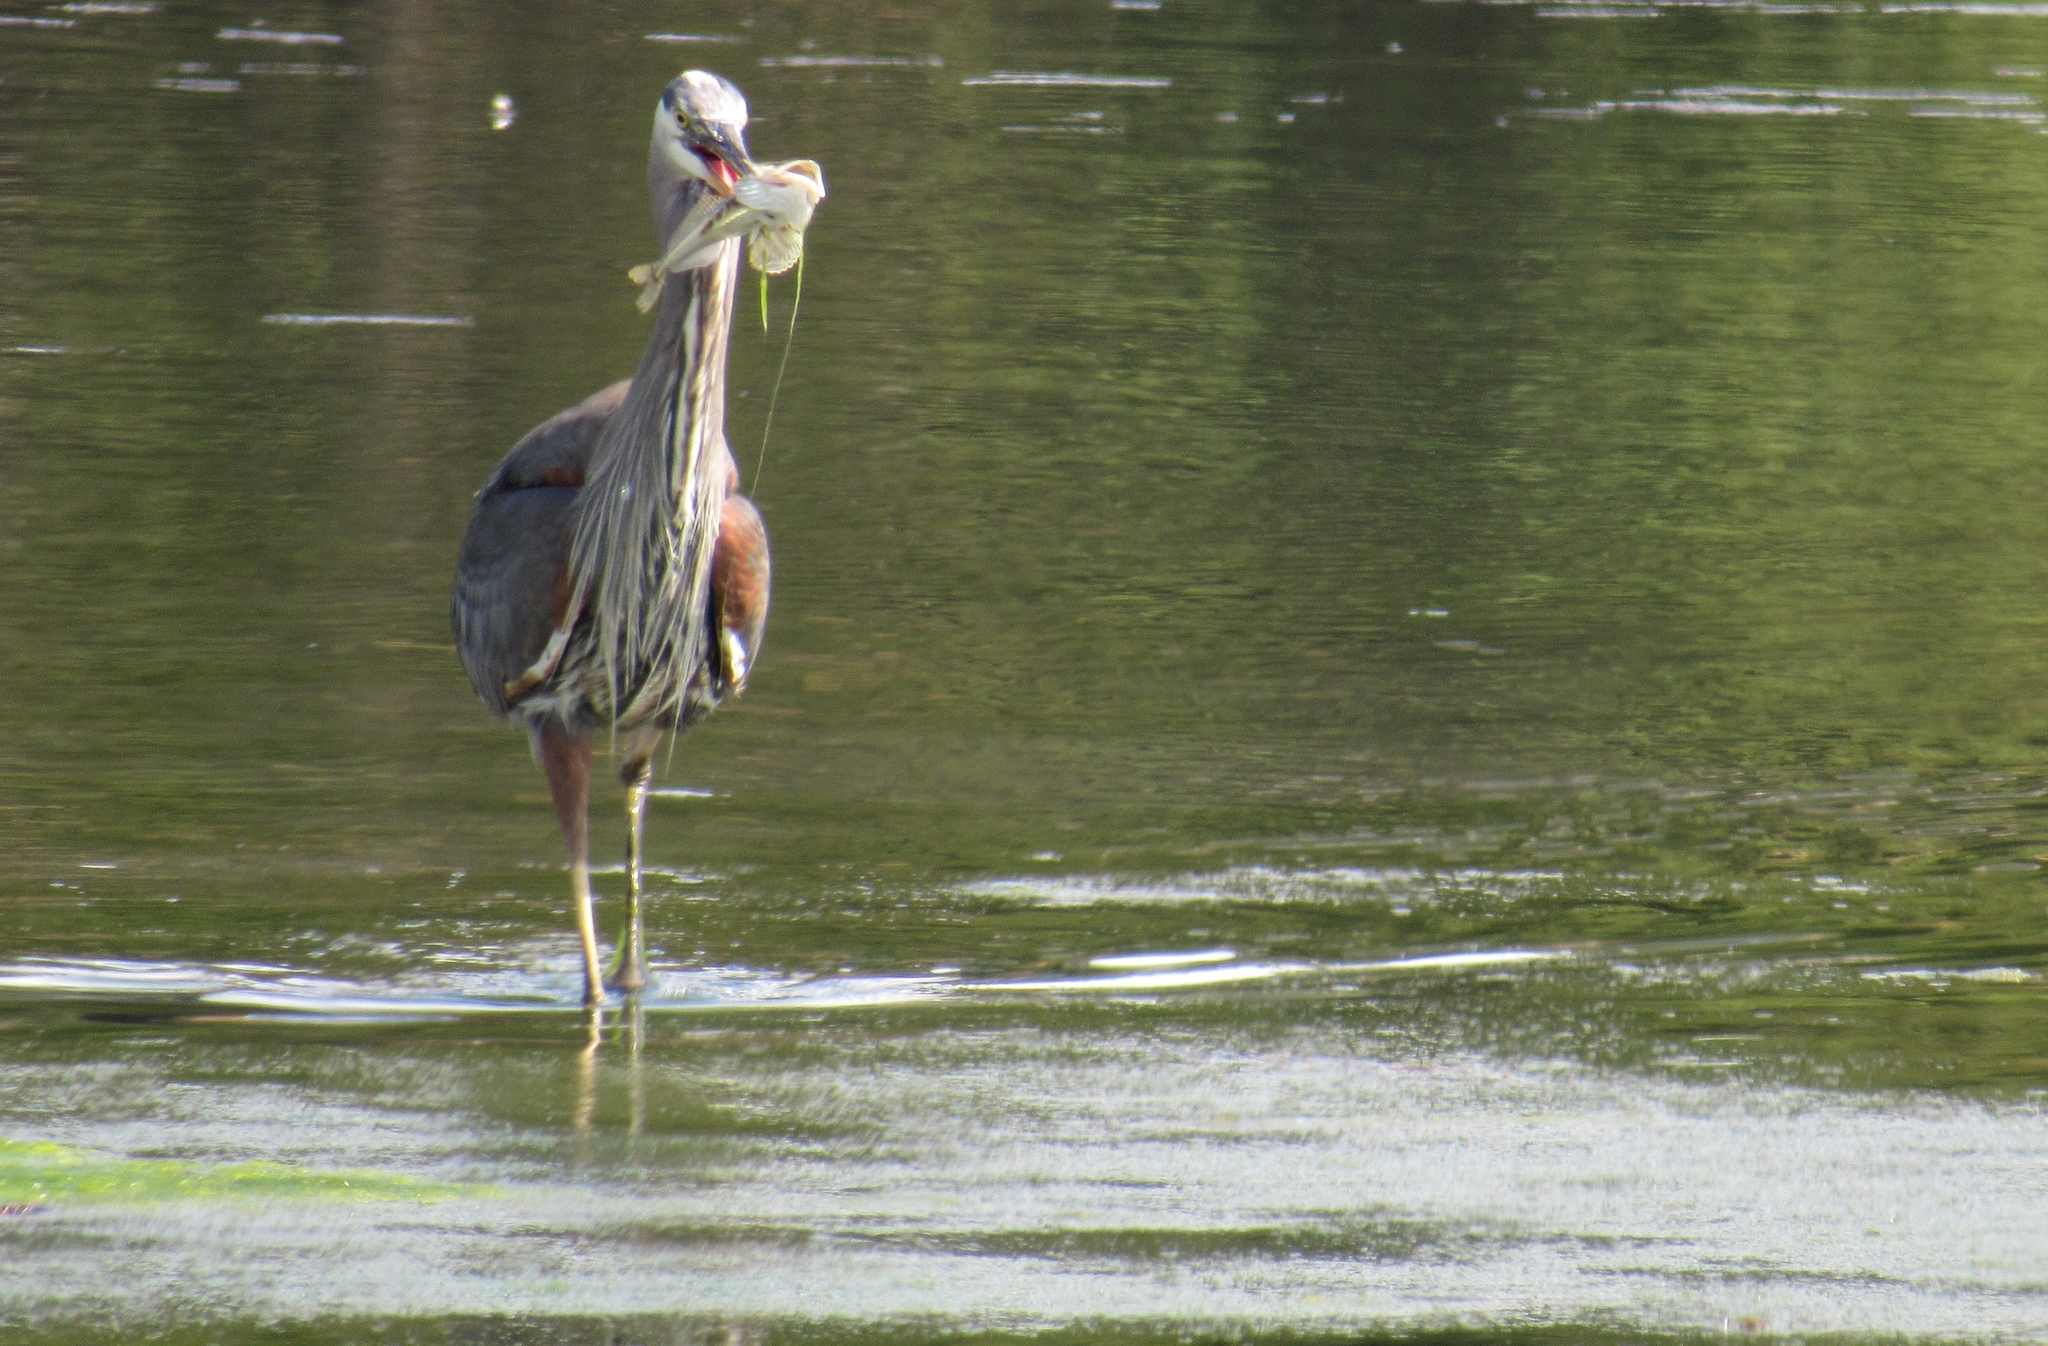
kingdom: Animalia
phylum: Chordata
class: Aves
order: Pelecaniformes
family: Ardeidae
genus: Ardea
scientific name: Ardea herodias
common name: Great blue heron
